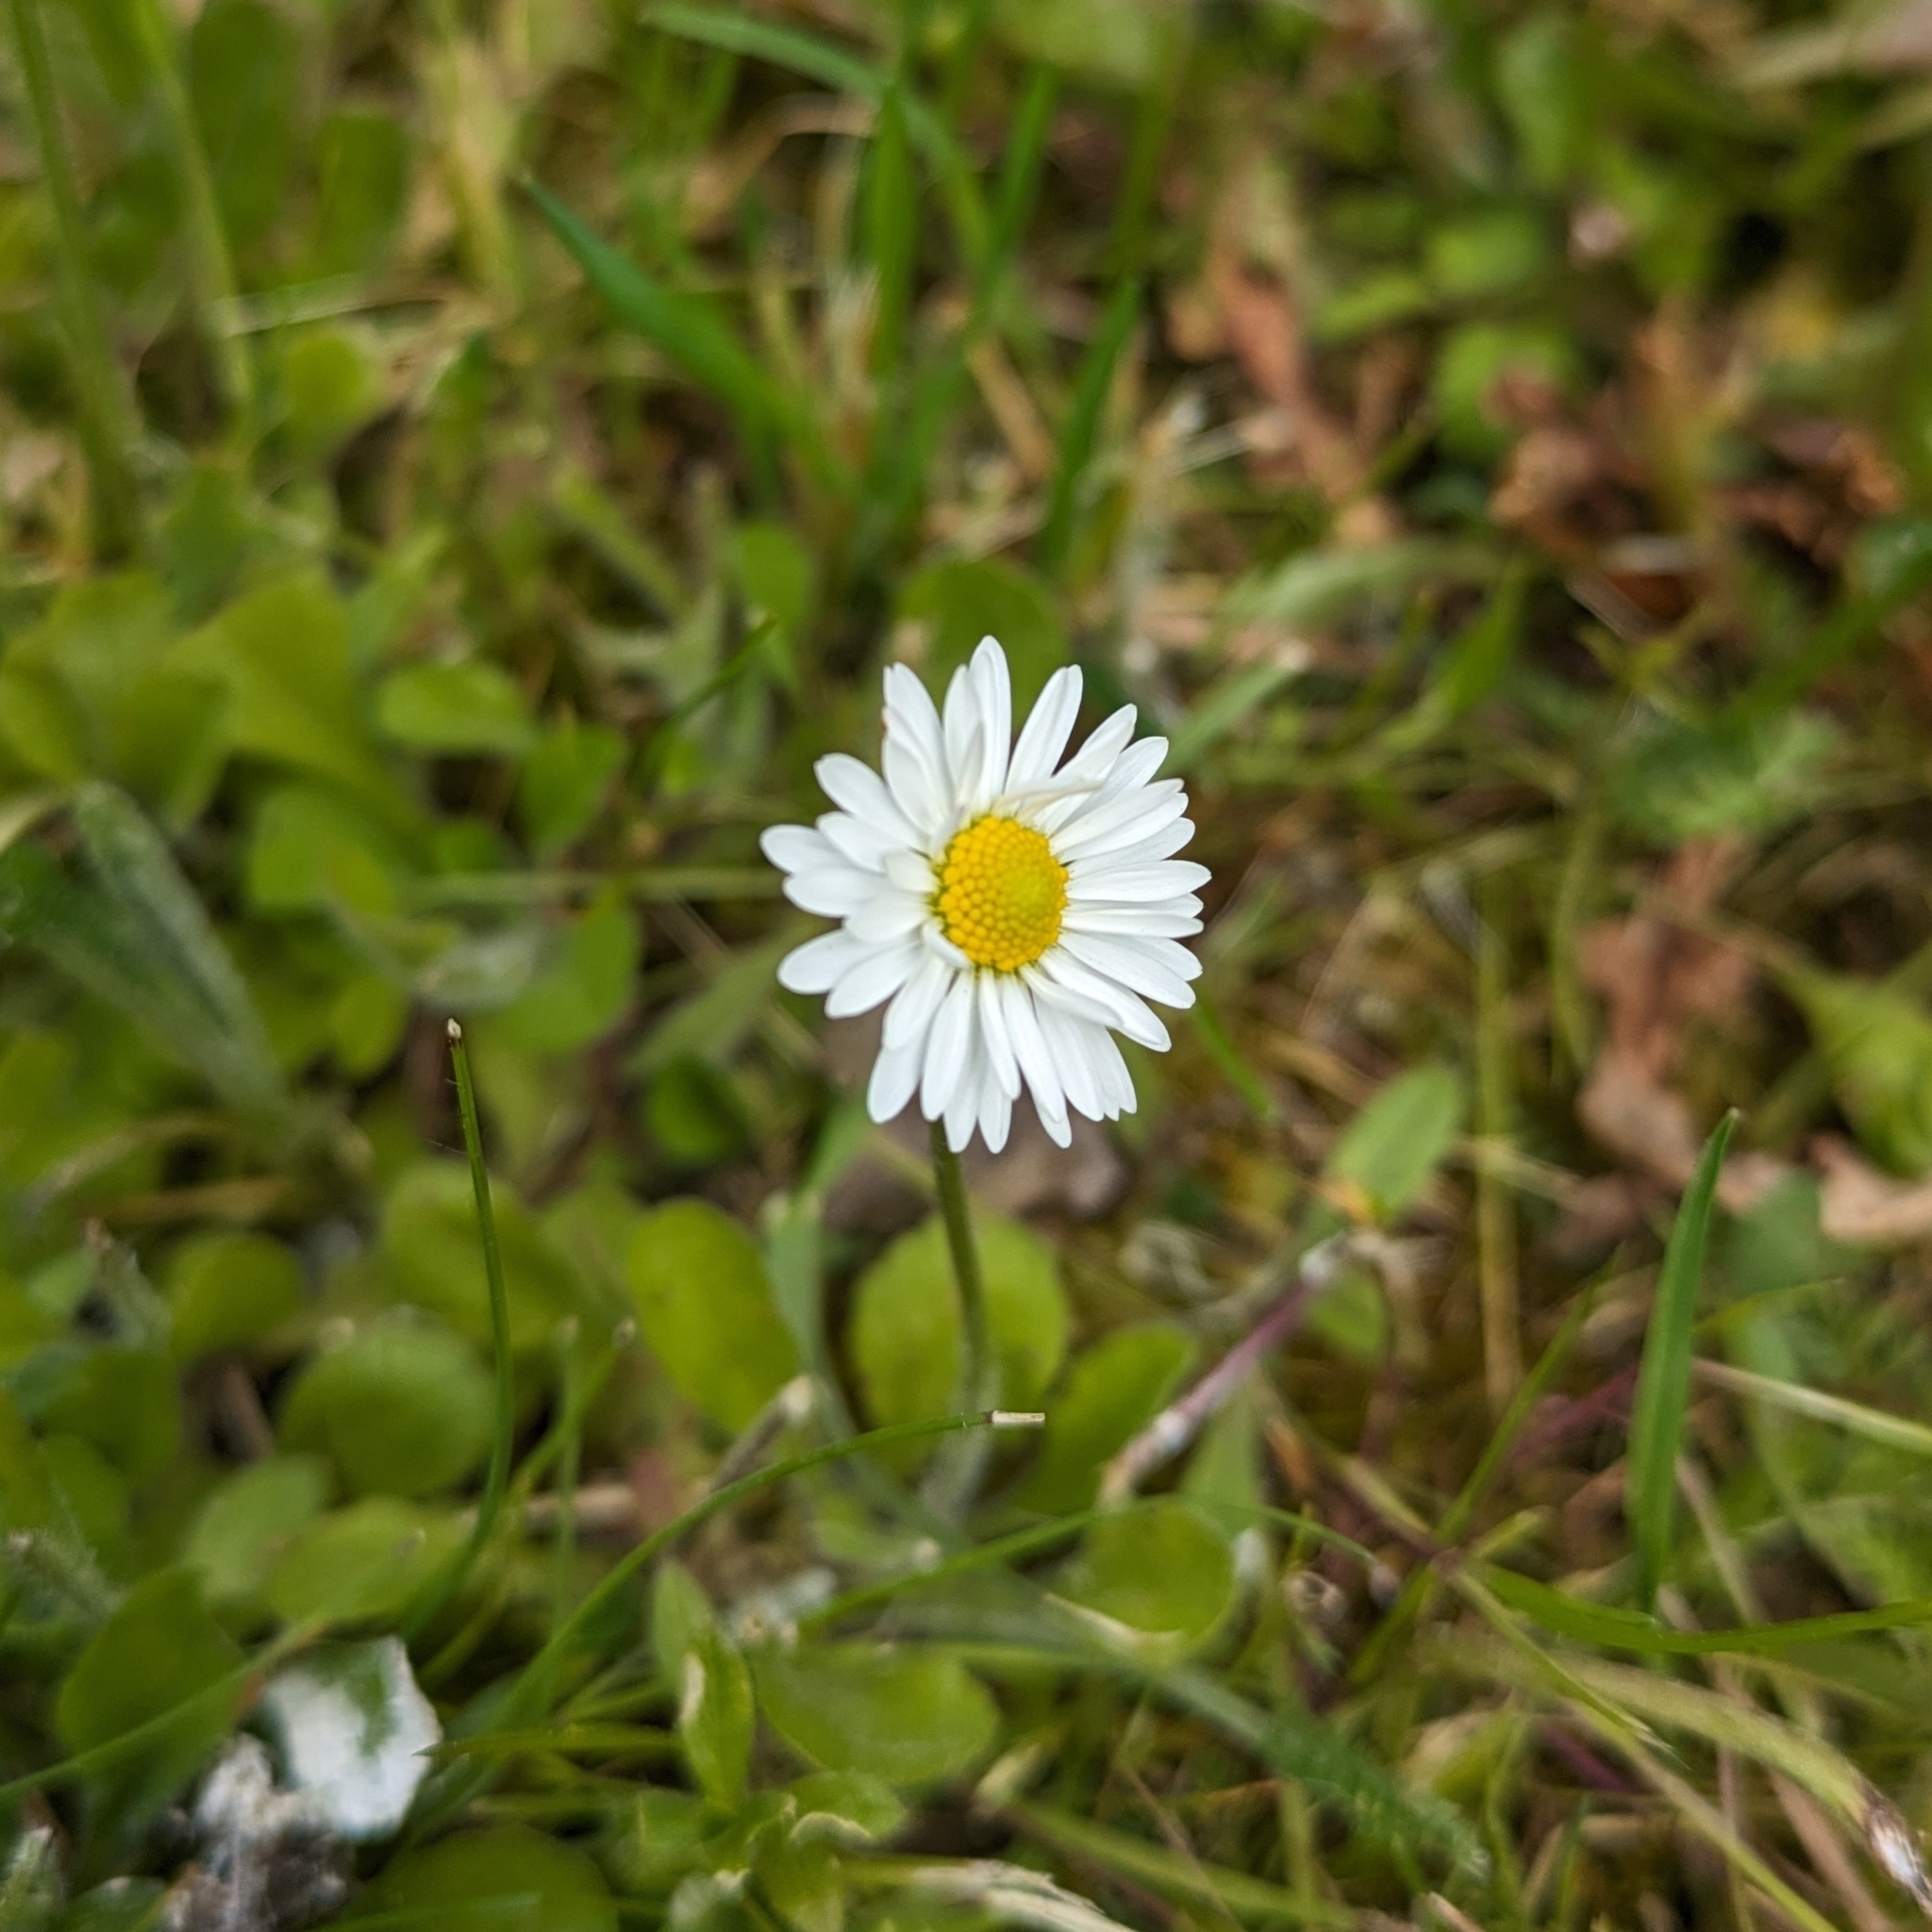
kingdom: Plantae
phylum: Tracheophyta
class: Magnoliopsida
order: Asterales
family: Asteraceae
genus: Bellis
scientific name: Bellis perennis
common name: Lawndaisy
